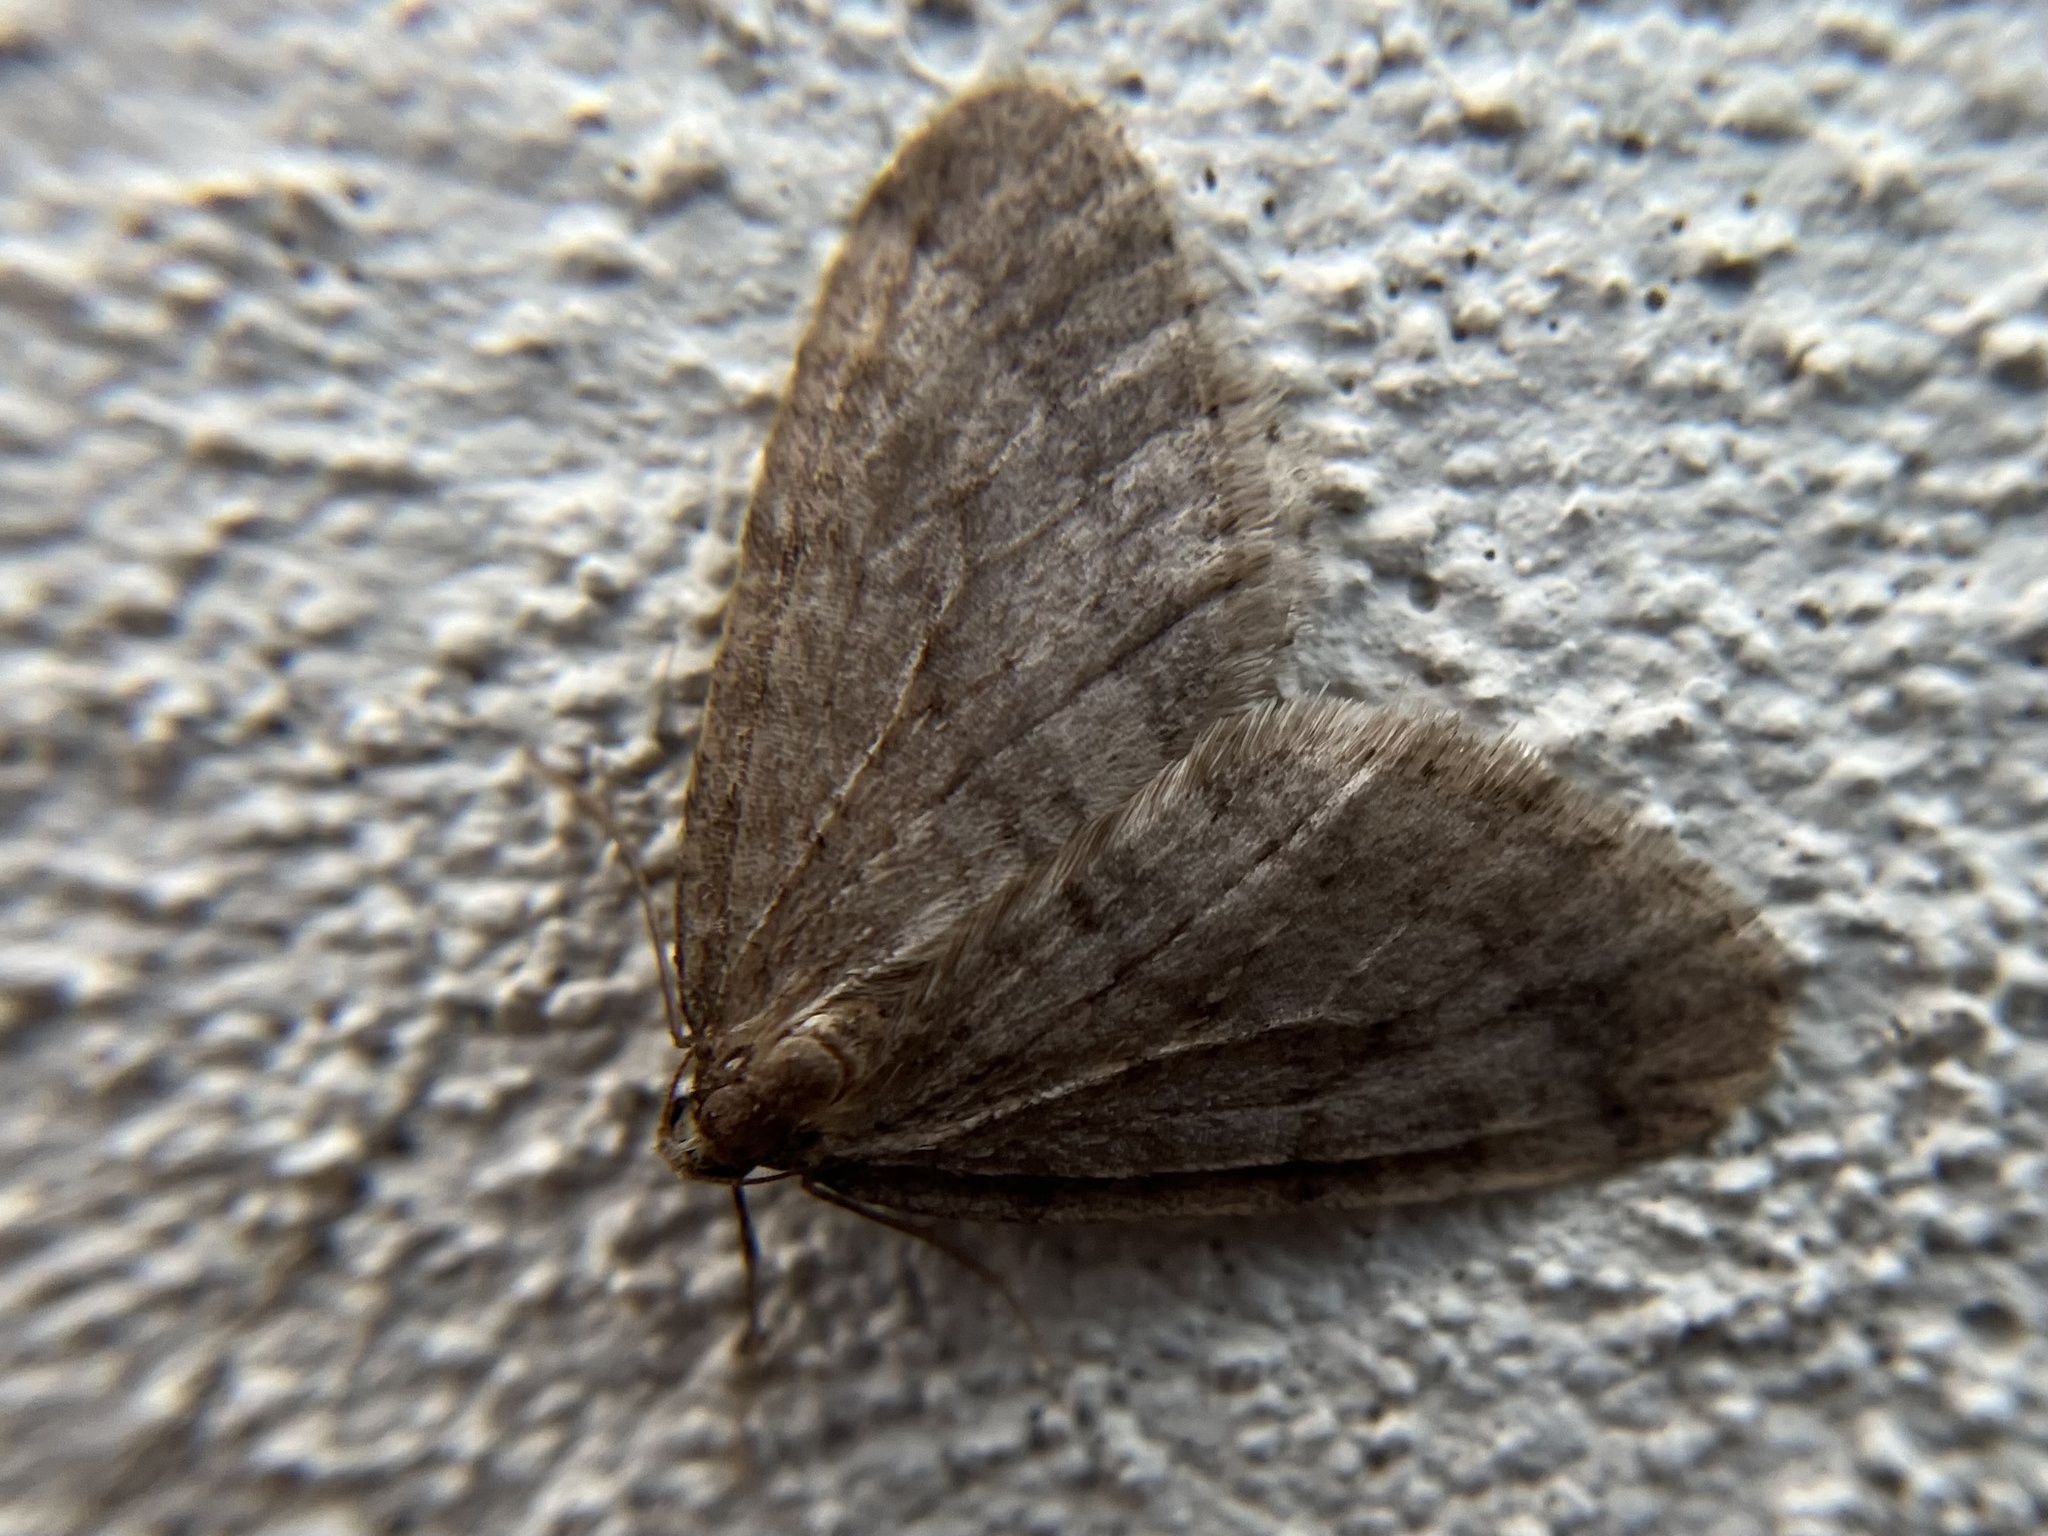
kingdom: Animalia
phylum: Arthropoda
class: Insecta
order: Lepidoptera
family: Geometridae
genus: Operophtera
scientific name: Operophtera brumata
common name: Winter moth
